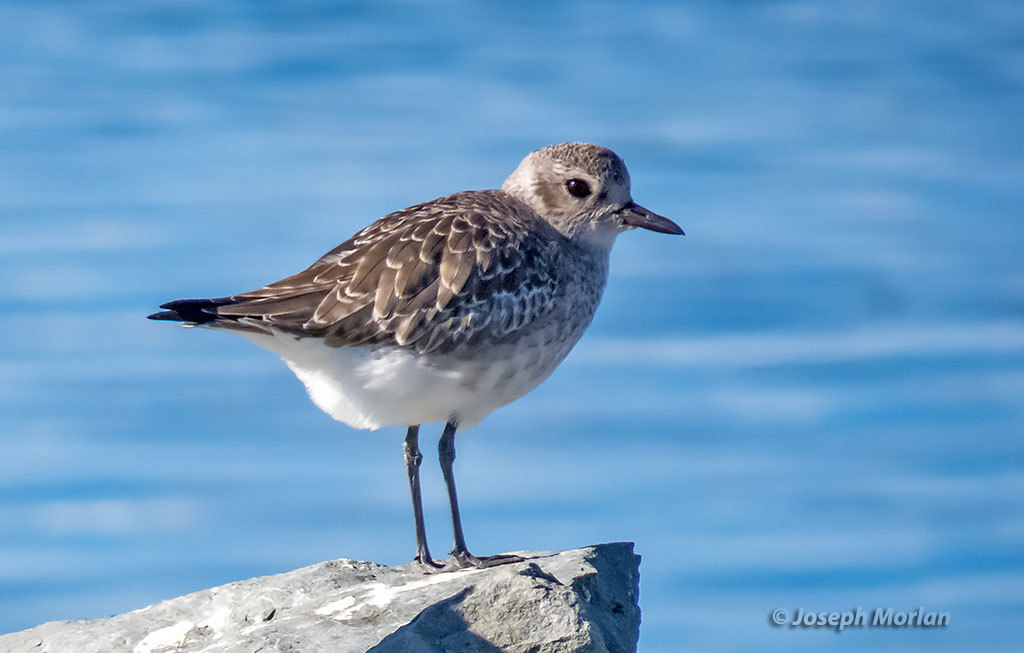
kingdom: Animalia
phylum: Chordata
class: Aves
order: Charadriiformes
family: Charadriidae
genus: Pluvialis
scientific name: Pluvialis squatarola
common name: Grey plover
